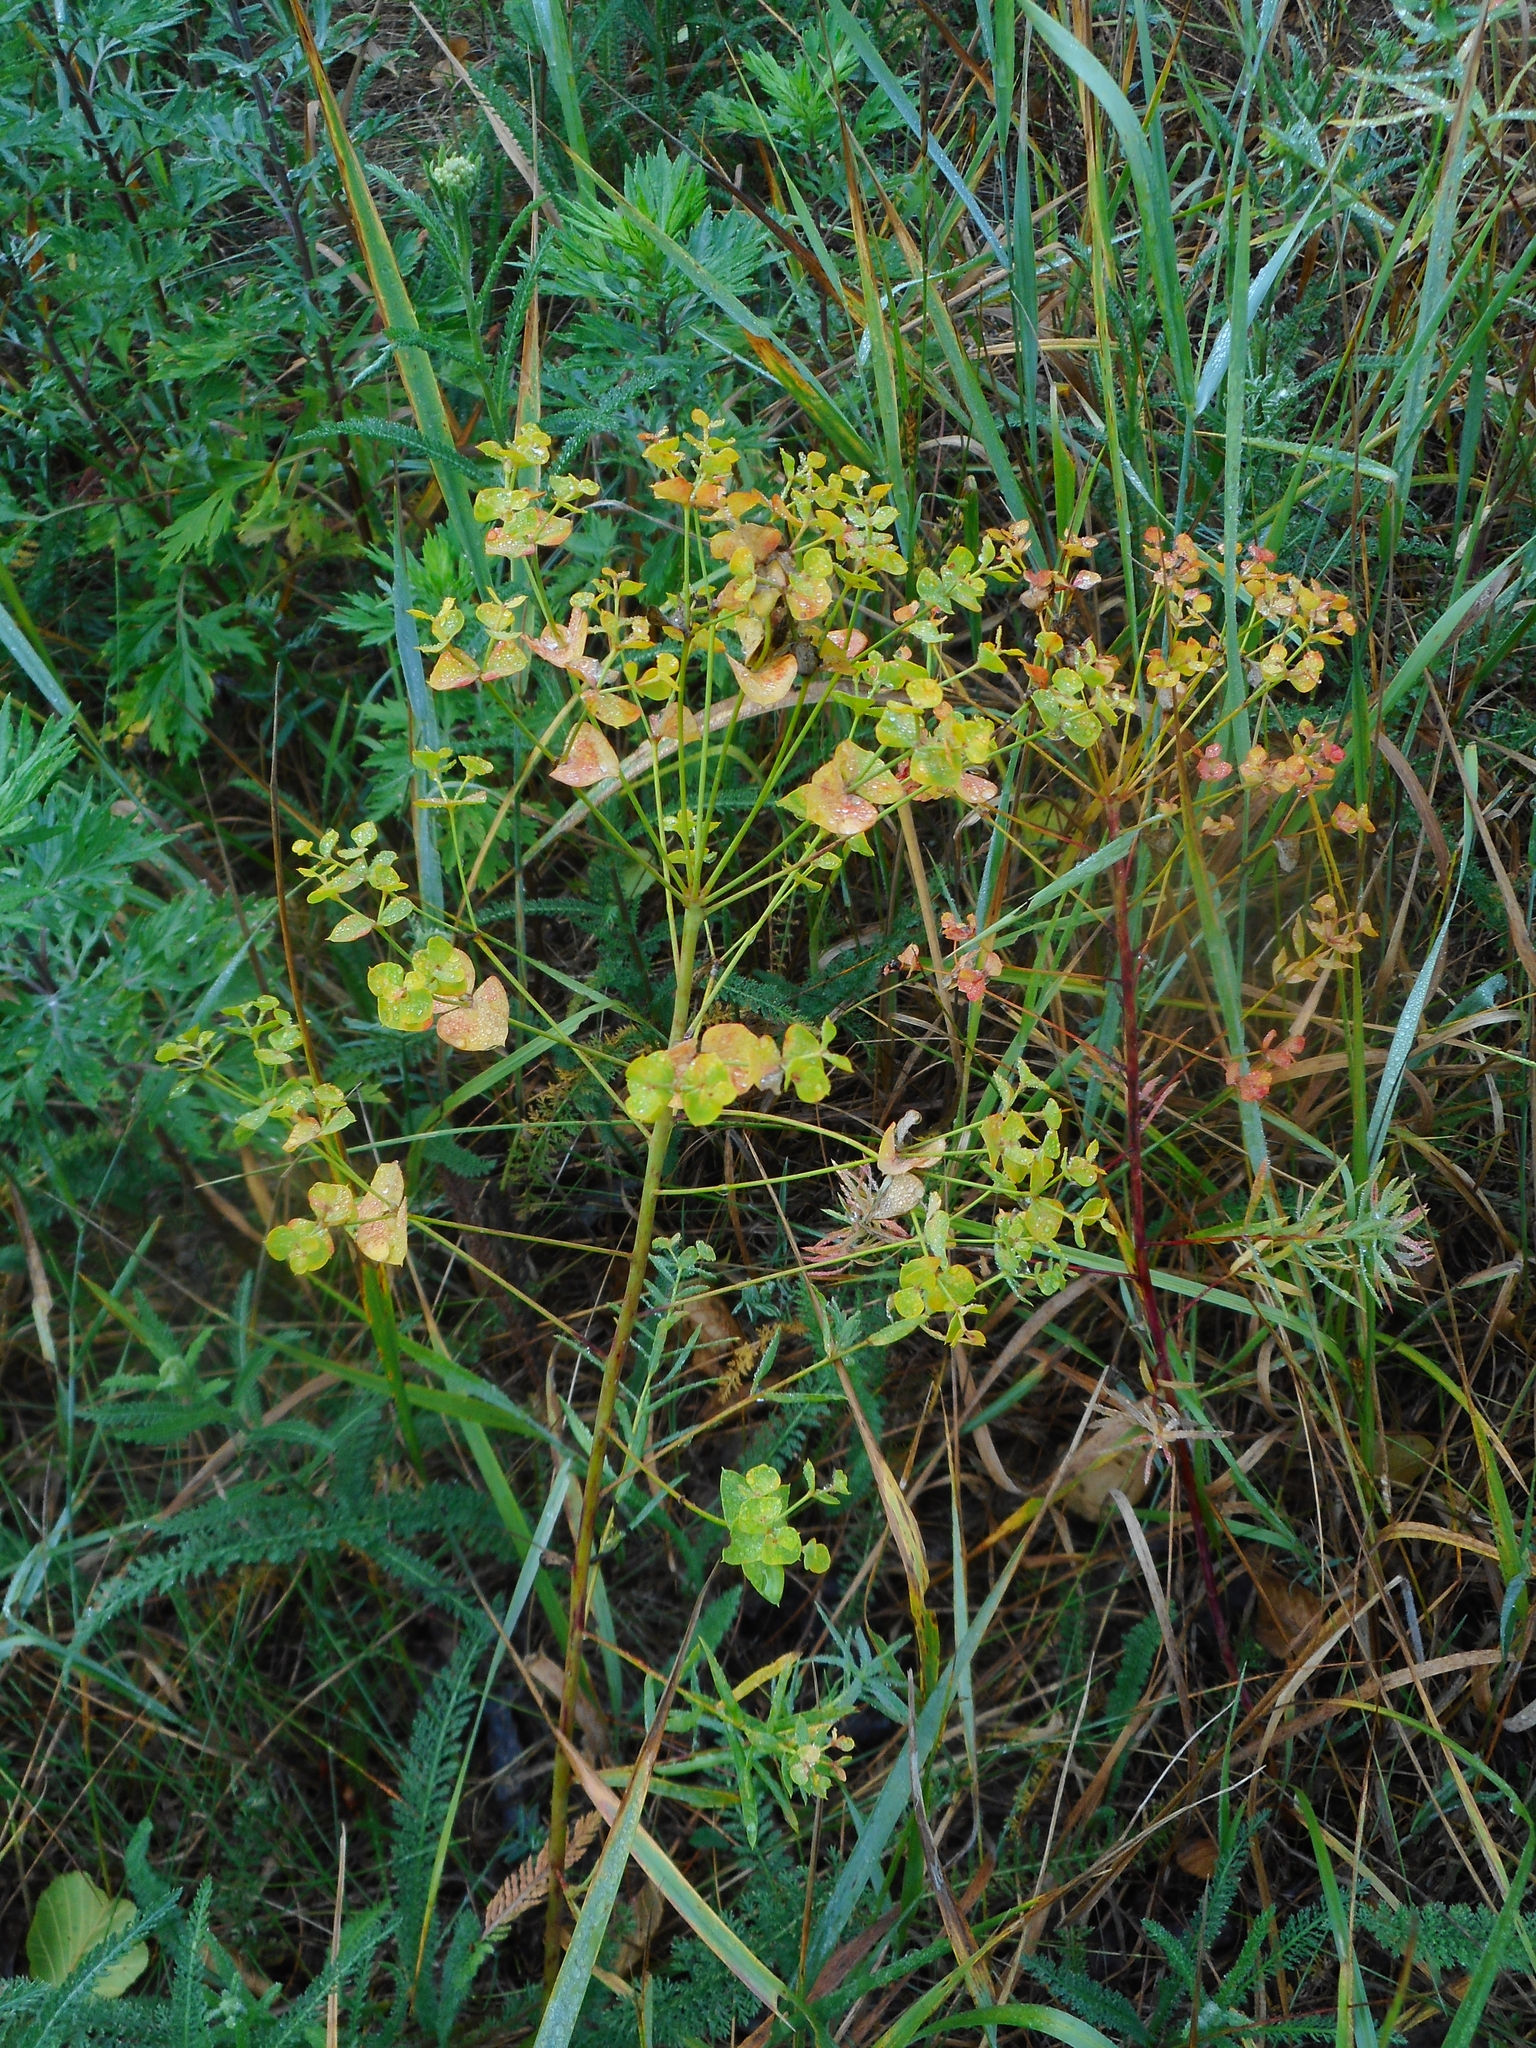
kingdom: Plantae
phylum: Tracheophyta
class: Magnoliopsida
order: Malpighiales
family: Euphorbiaceae
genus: Euphorbia
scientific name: Euphorbia virgata
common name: Leafy spurge
